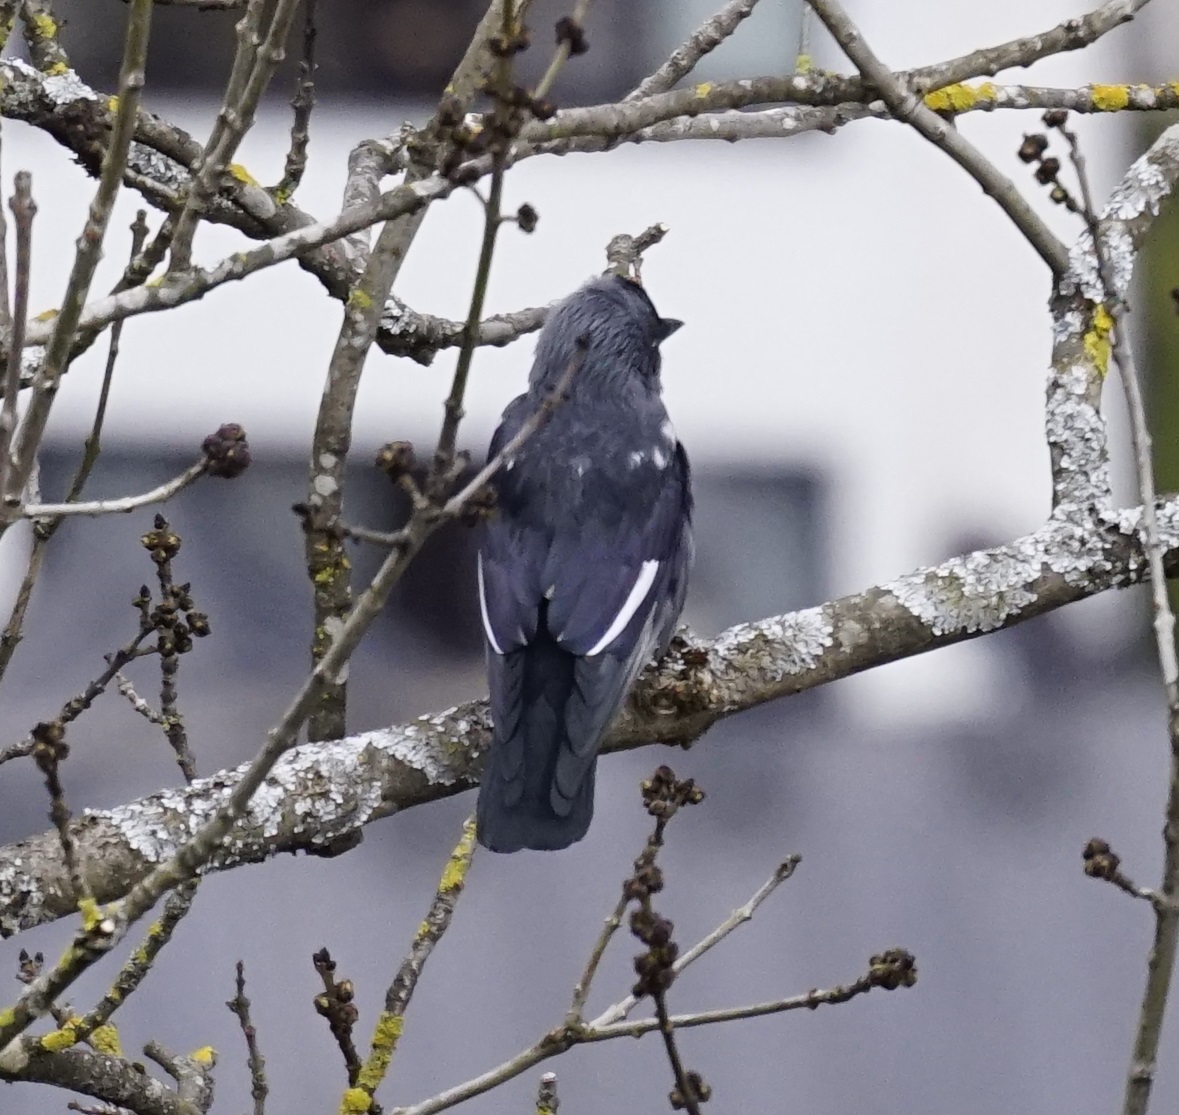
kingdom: Animalia
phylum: Chordata
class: Aves
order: Passeriformes
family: Corvidae
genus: Coloeus
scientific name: Coloeus monedula
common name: Western jackdaw
